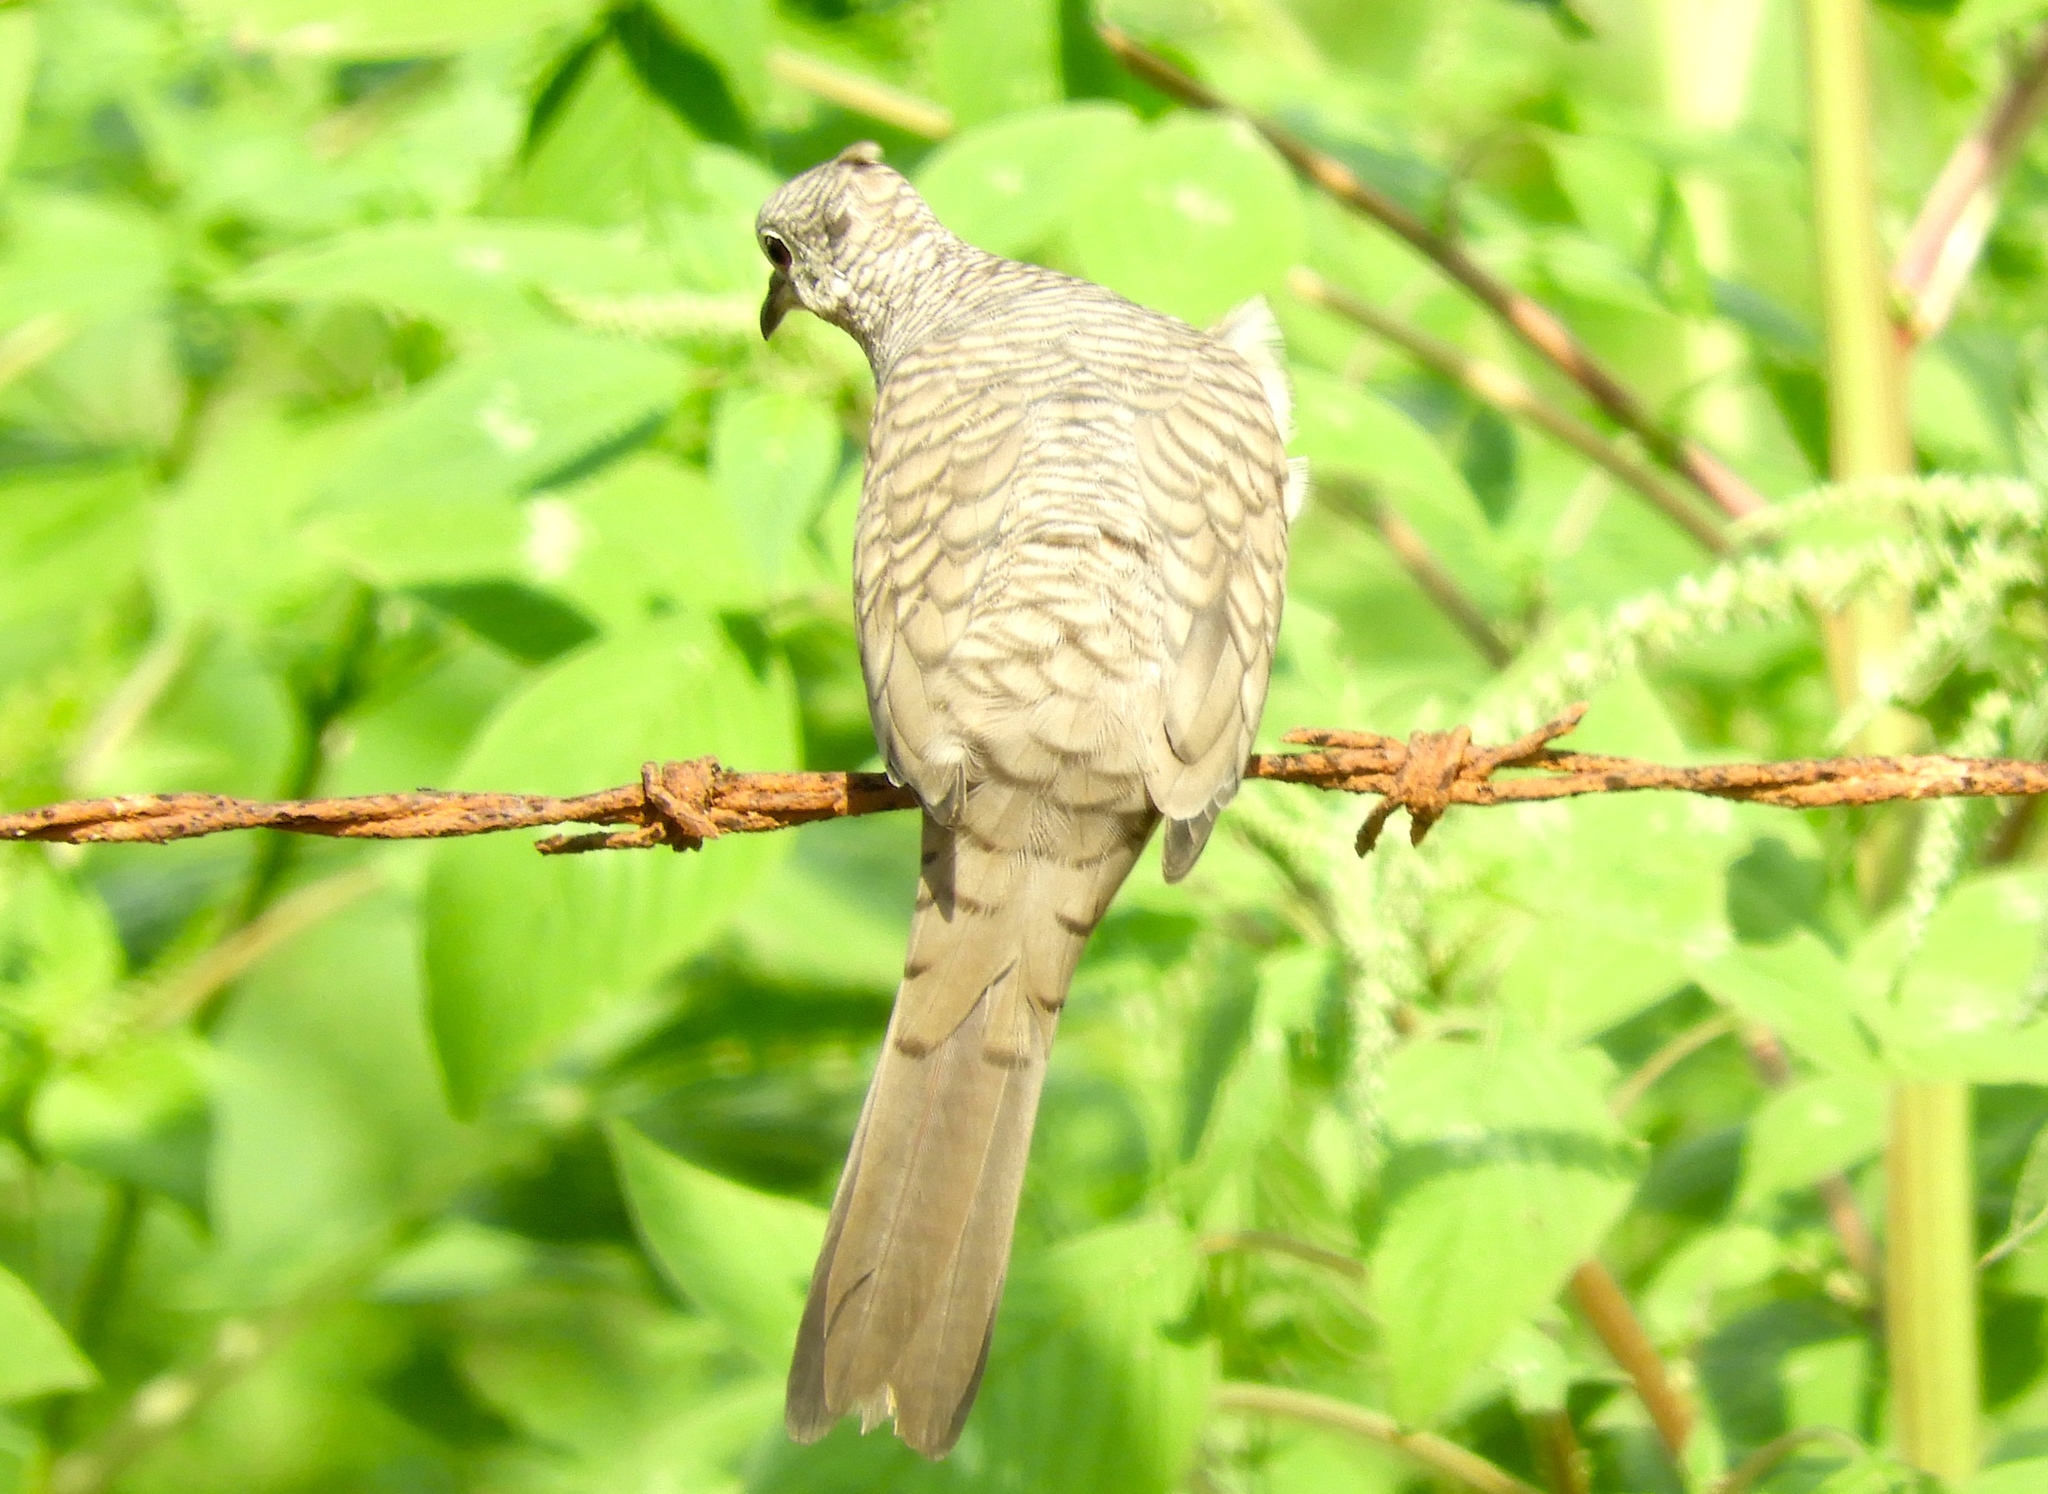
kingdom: Animalia
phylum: Chordata
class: Aves
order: Columbiformes
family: Columbidae
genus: Columbina
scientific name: Columbina inca
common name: Inca dove
